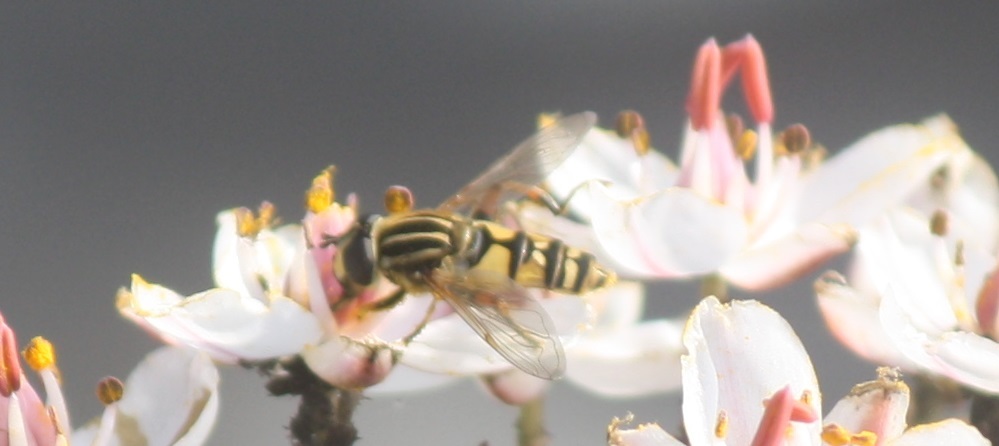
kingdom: Animalia
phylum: Arthropoda
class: Insecta
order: Diptera
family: Syrphidae
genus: Helophilus
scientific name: Helophilus pendulus
